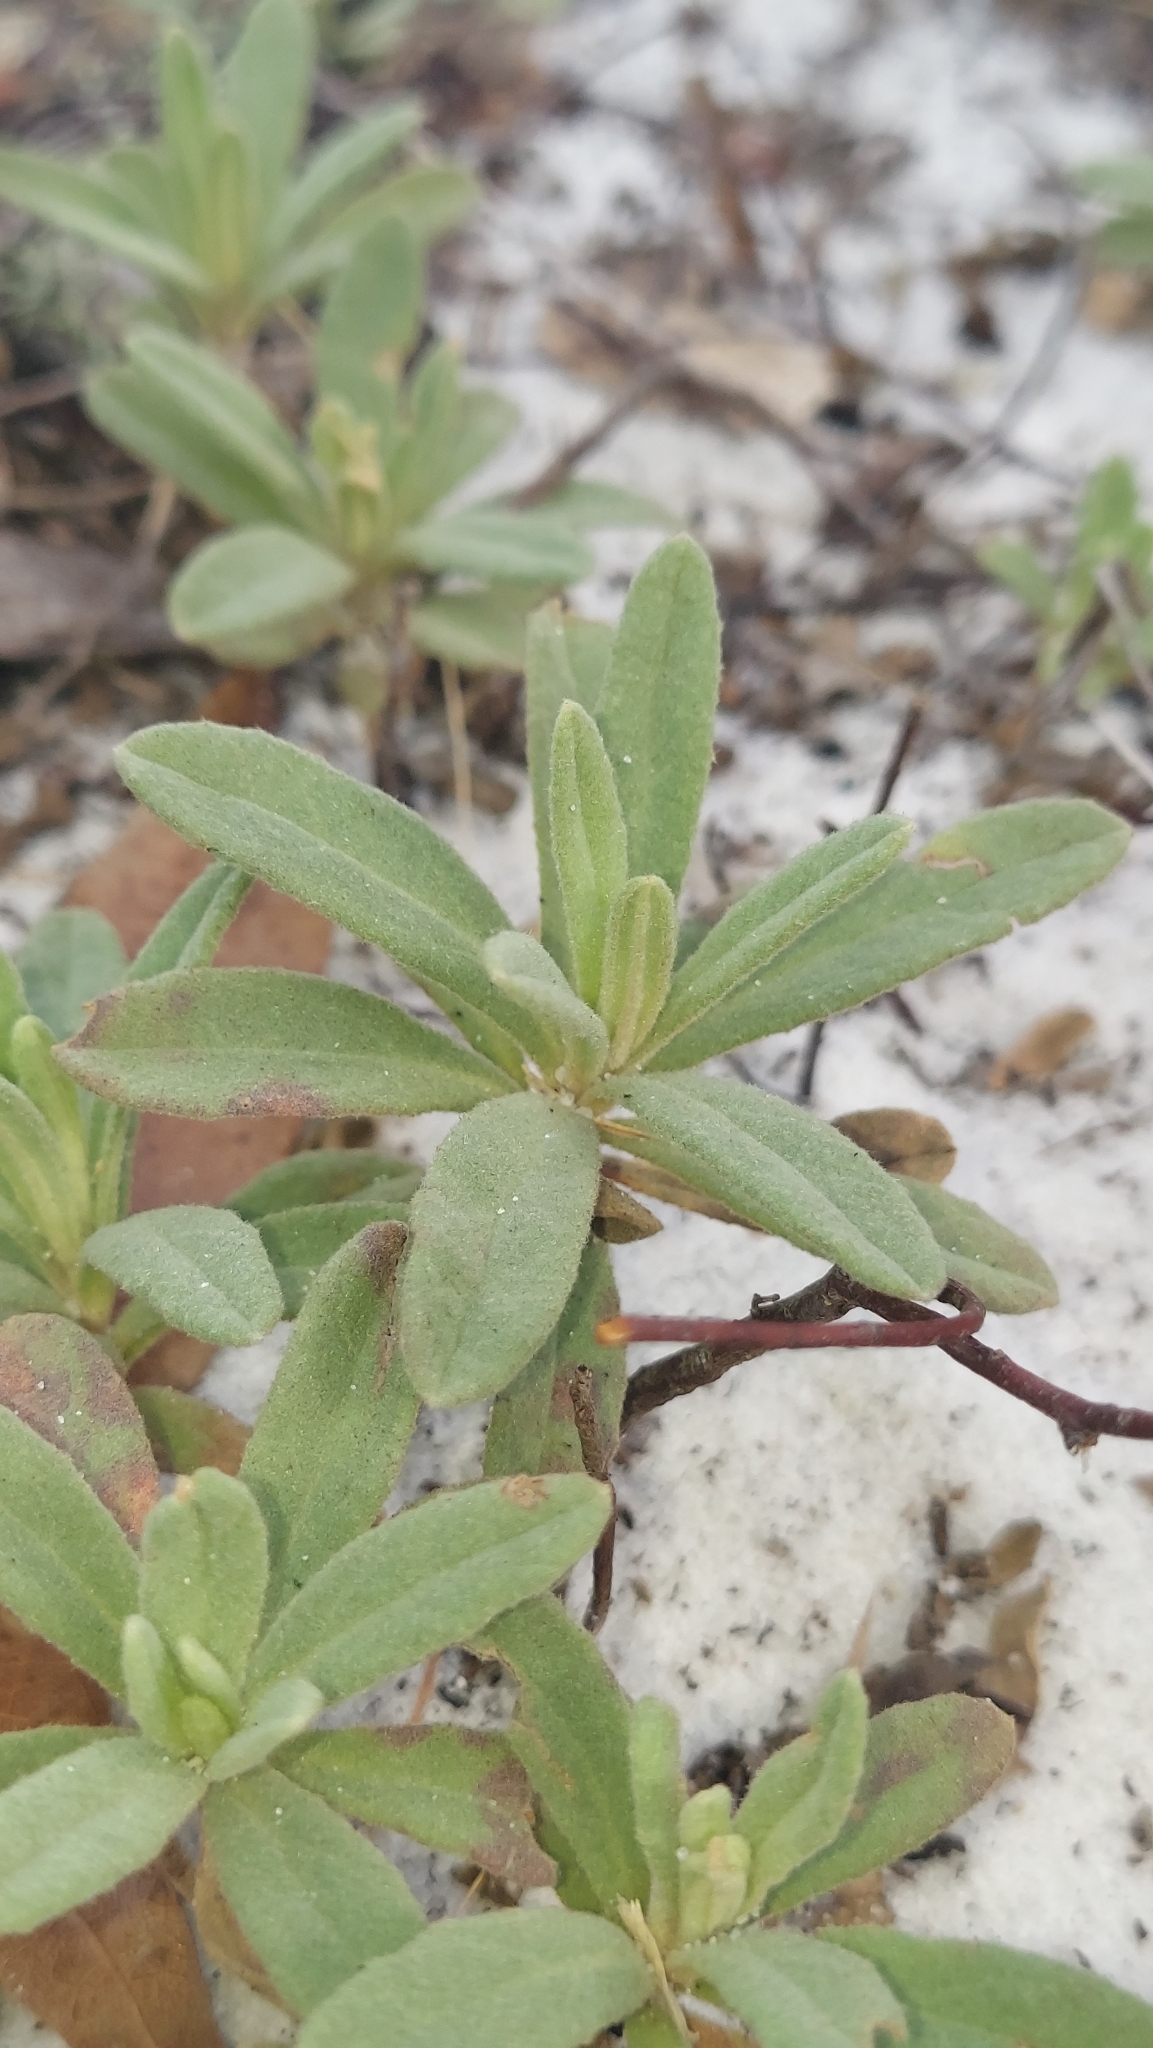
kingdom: Plantae
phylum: Tracheophyta
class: Magnoliopsida
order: Malvales
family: Cistaceae
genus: Crocanthemum
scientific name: Crocanthemum nashii
